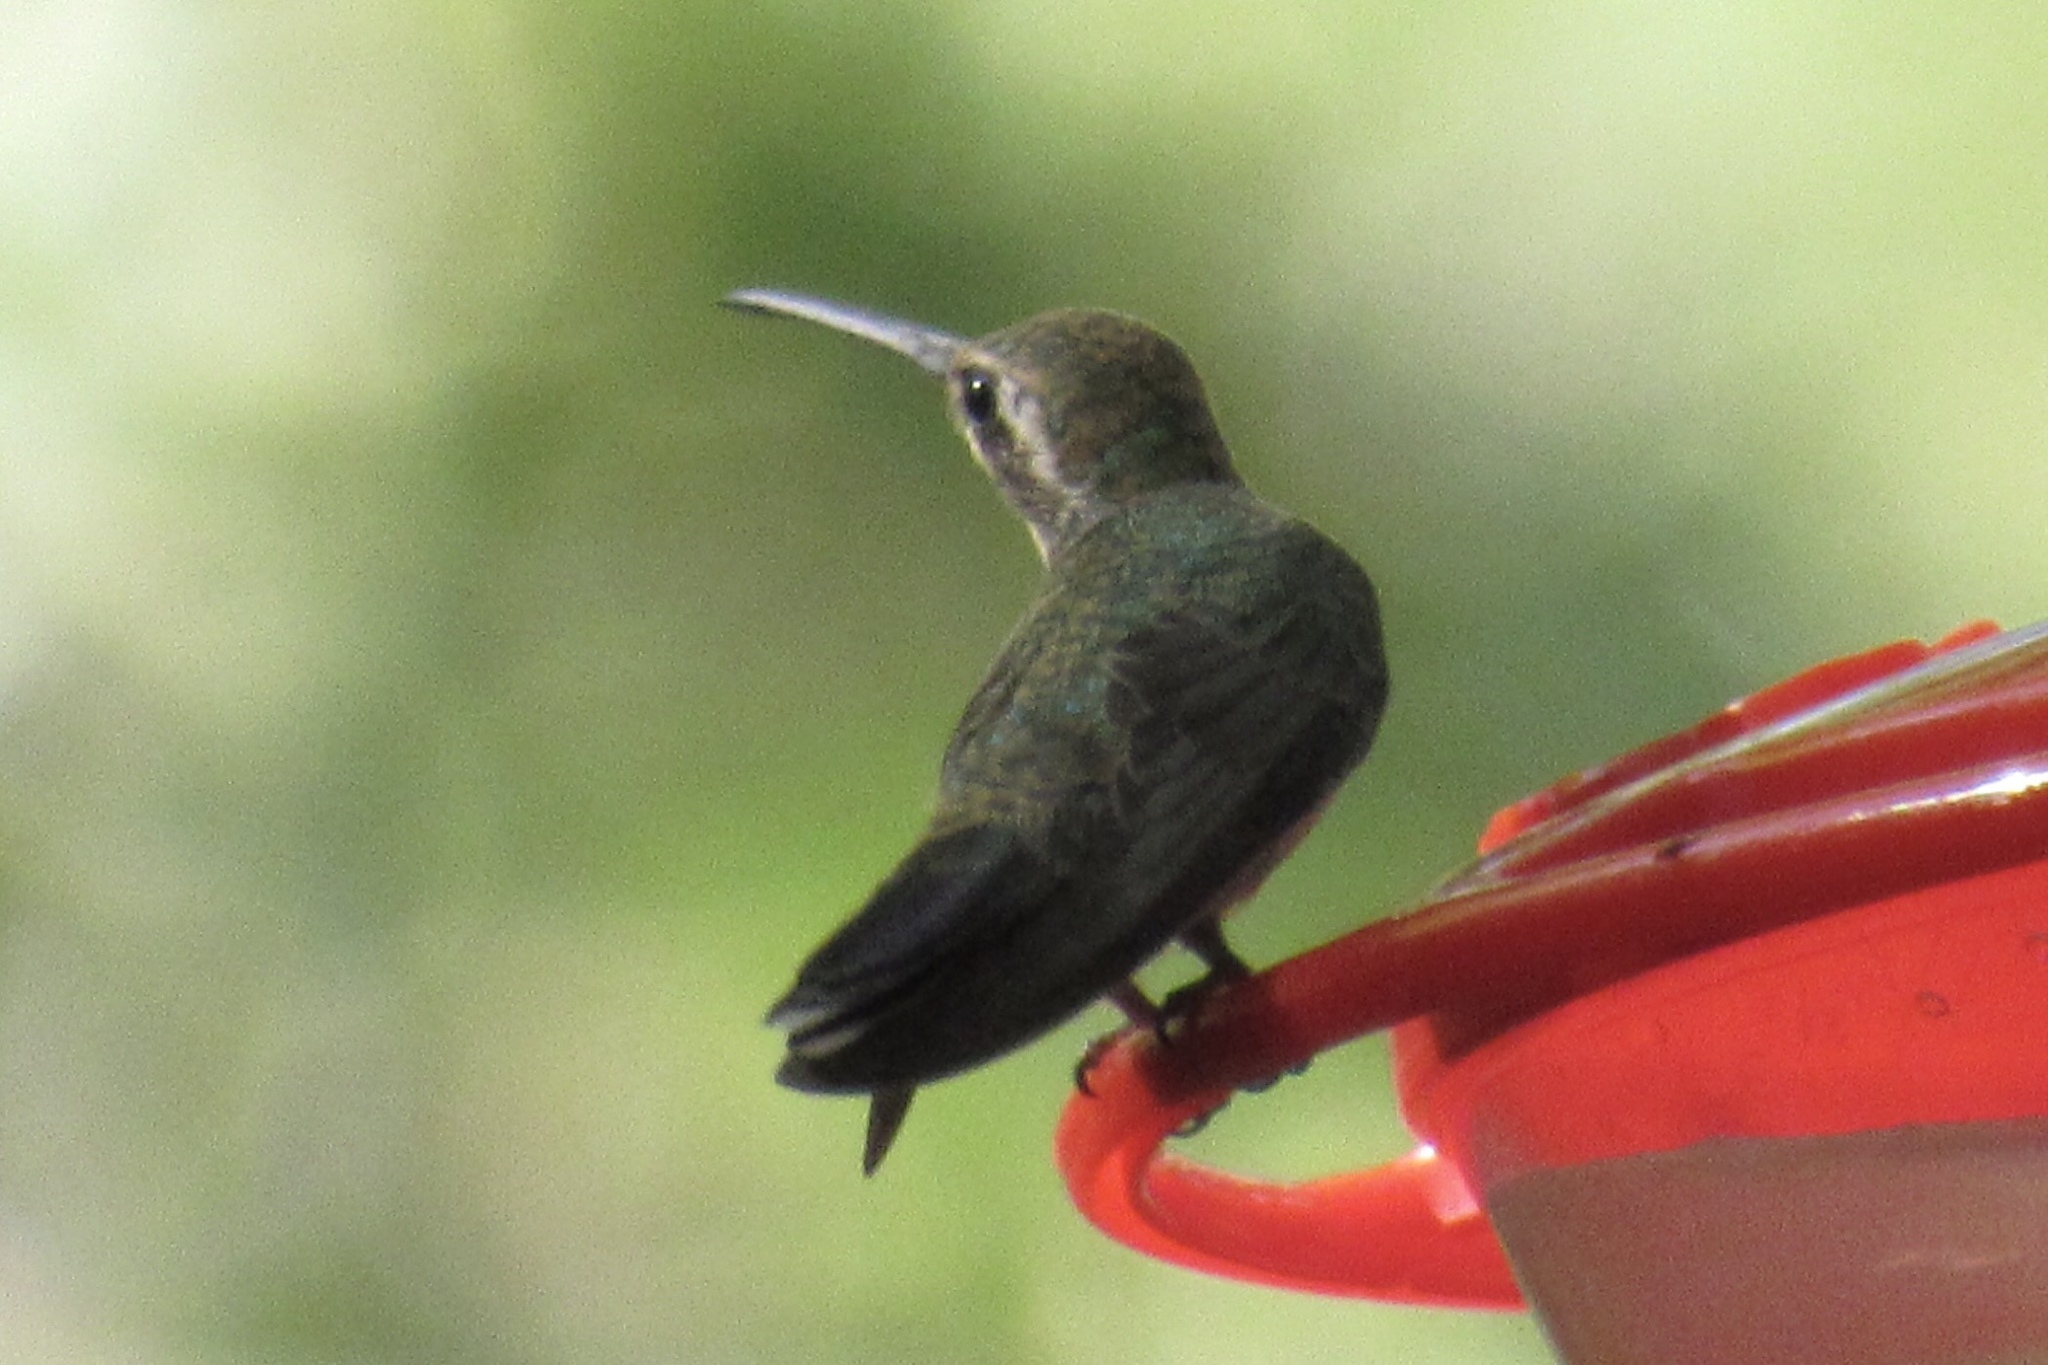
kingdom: Animalia
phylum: Chordata
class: Aves
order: Apodiformes
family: Trochilidae
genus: Cynanthus
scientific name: Cynanthus latirostris
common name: Broad-billed hummingbird
